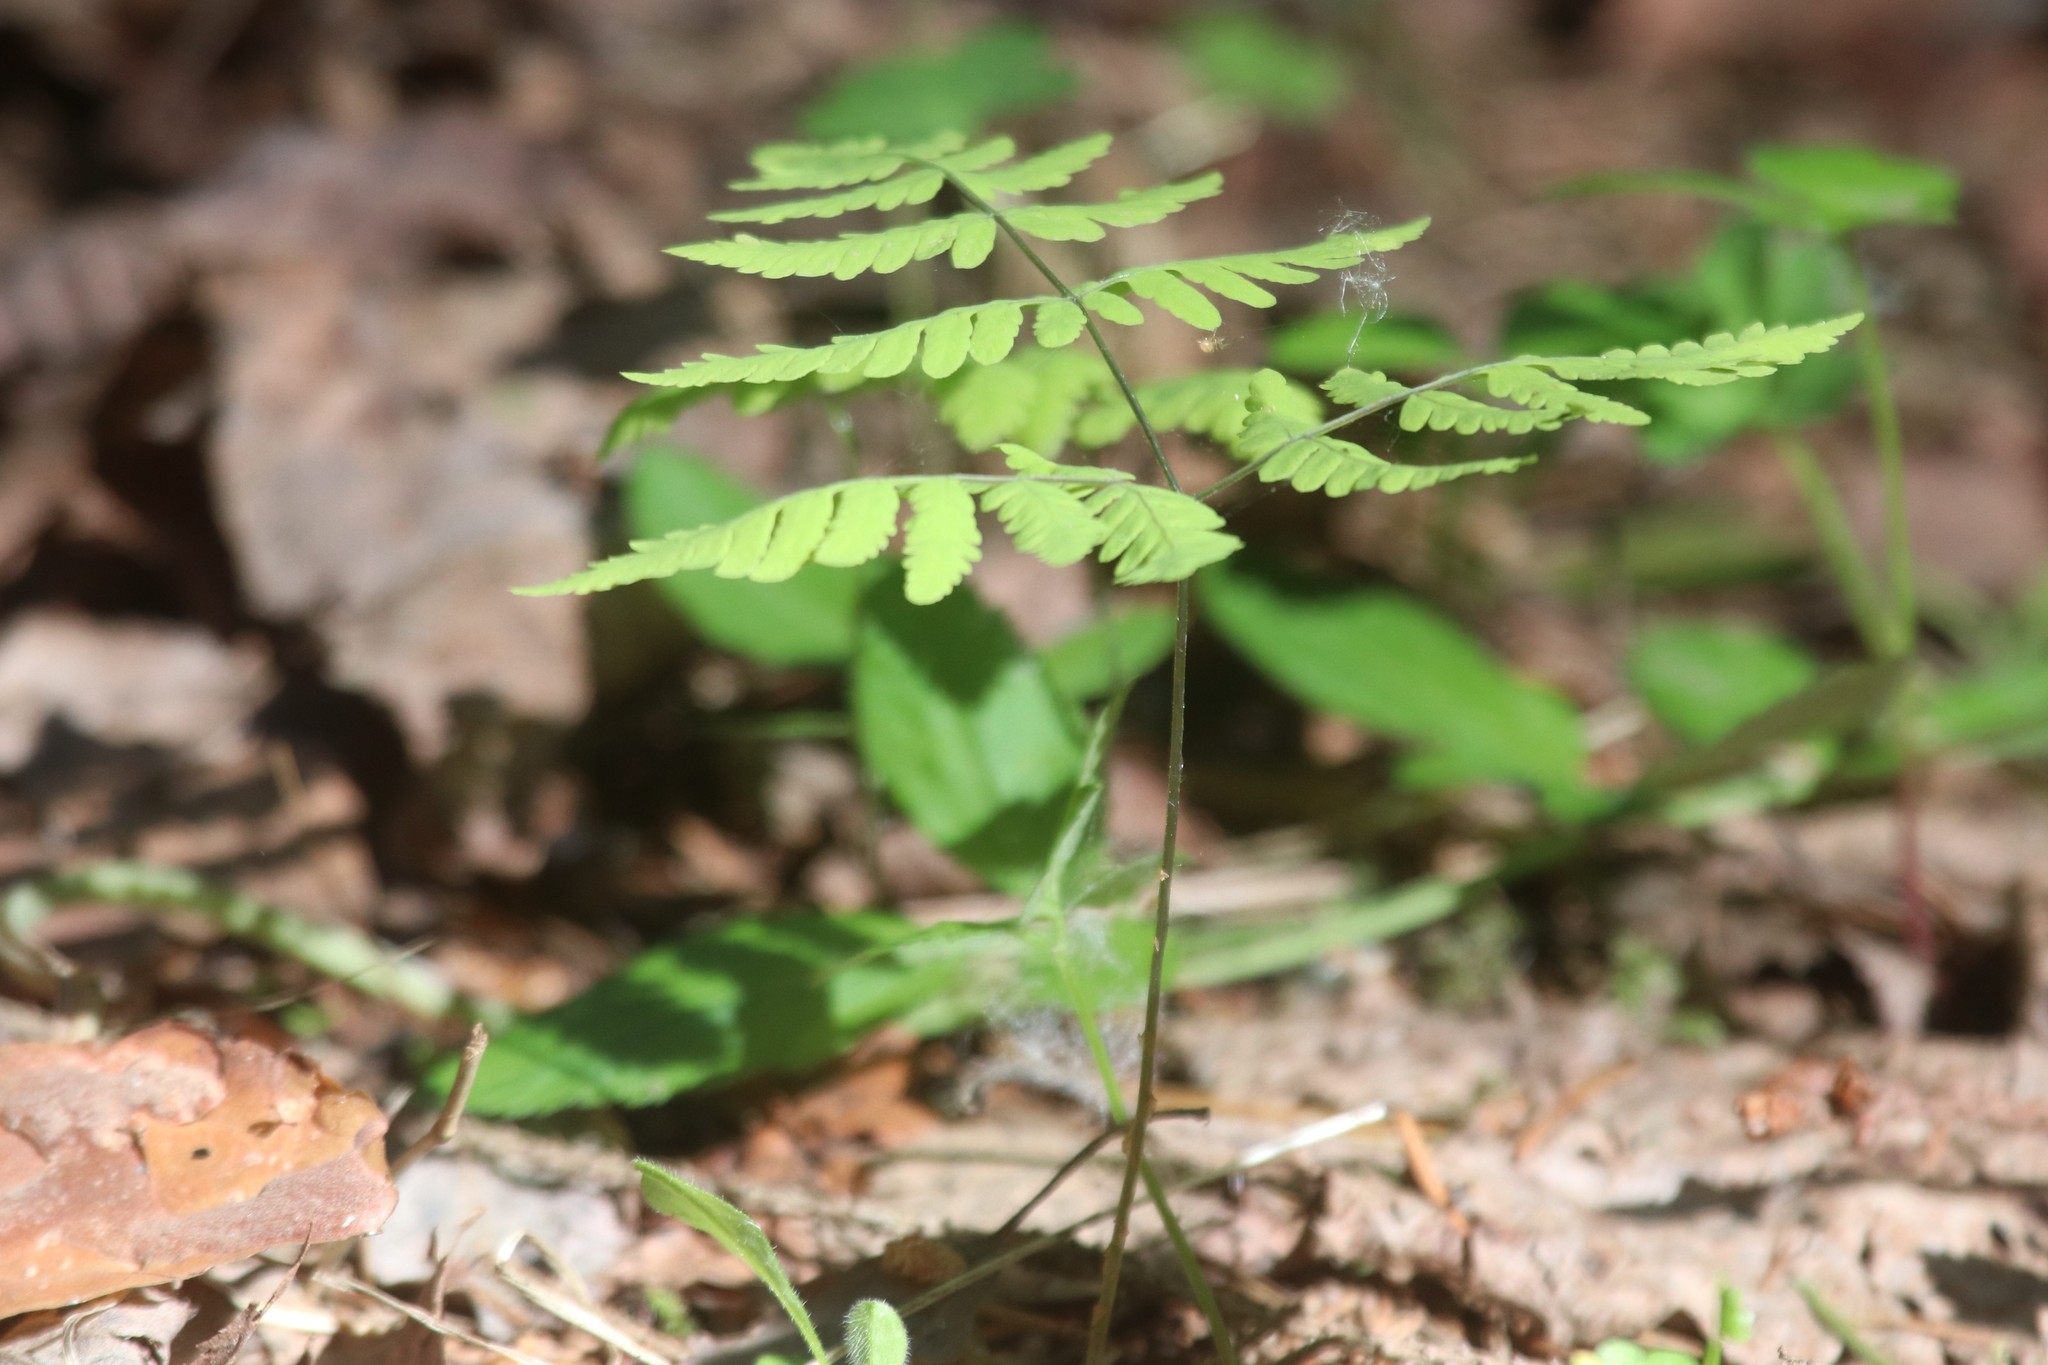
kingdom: Plantae
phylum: Tracheophyta
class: Polypodiopsida
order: Polypodiales
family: Cystopteridaceae
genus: Gymnocarpium
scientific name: Gymnocarpium dryopteris
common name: Oak fern
